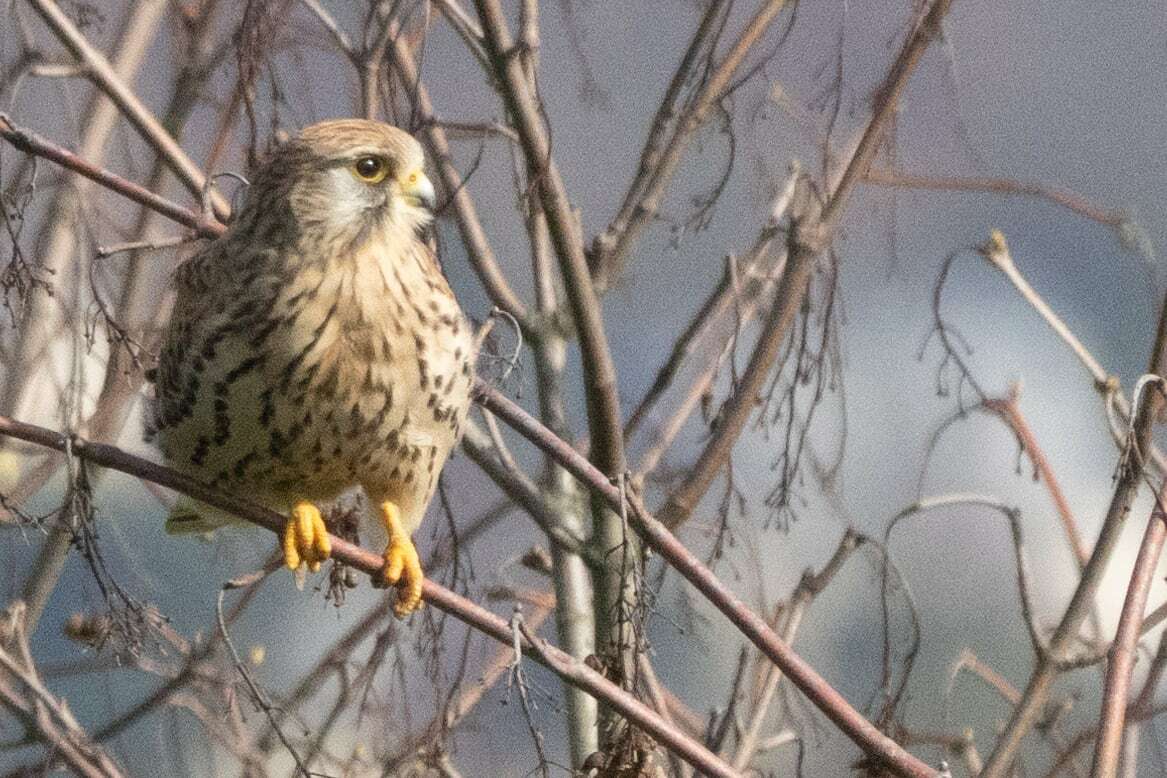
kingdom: Animalia
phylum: Chordata
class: Aves
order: Falconiformes
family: Falconidae
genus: Falco
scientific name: Falco tinnunculus
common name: Common kestrel
